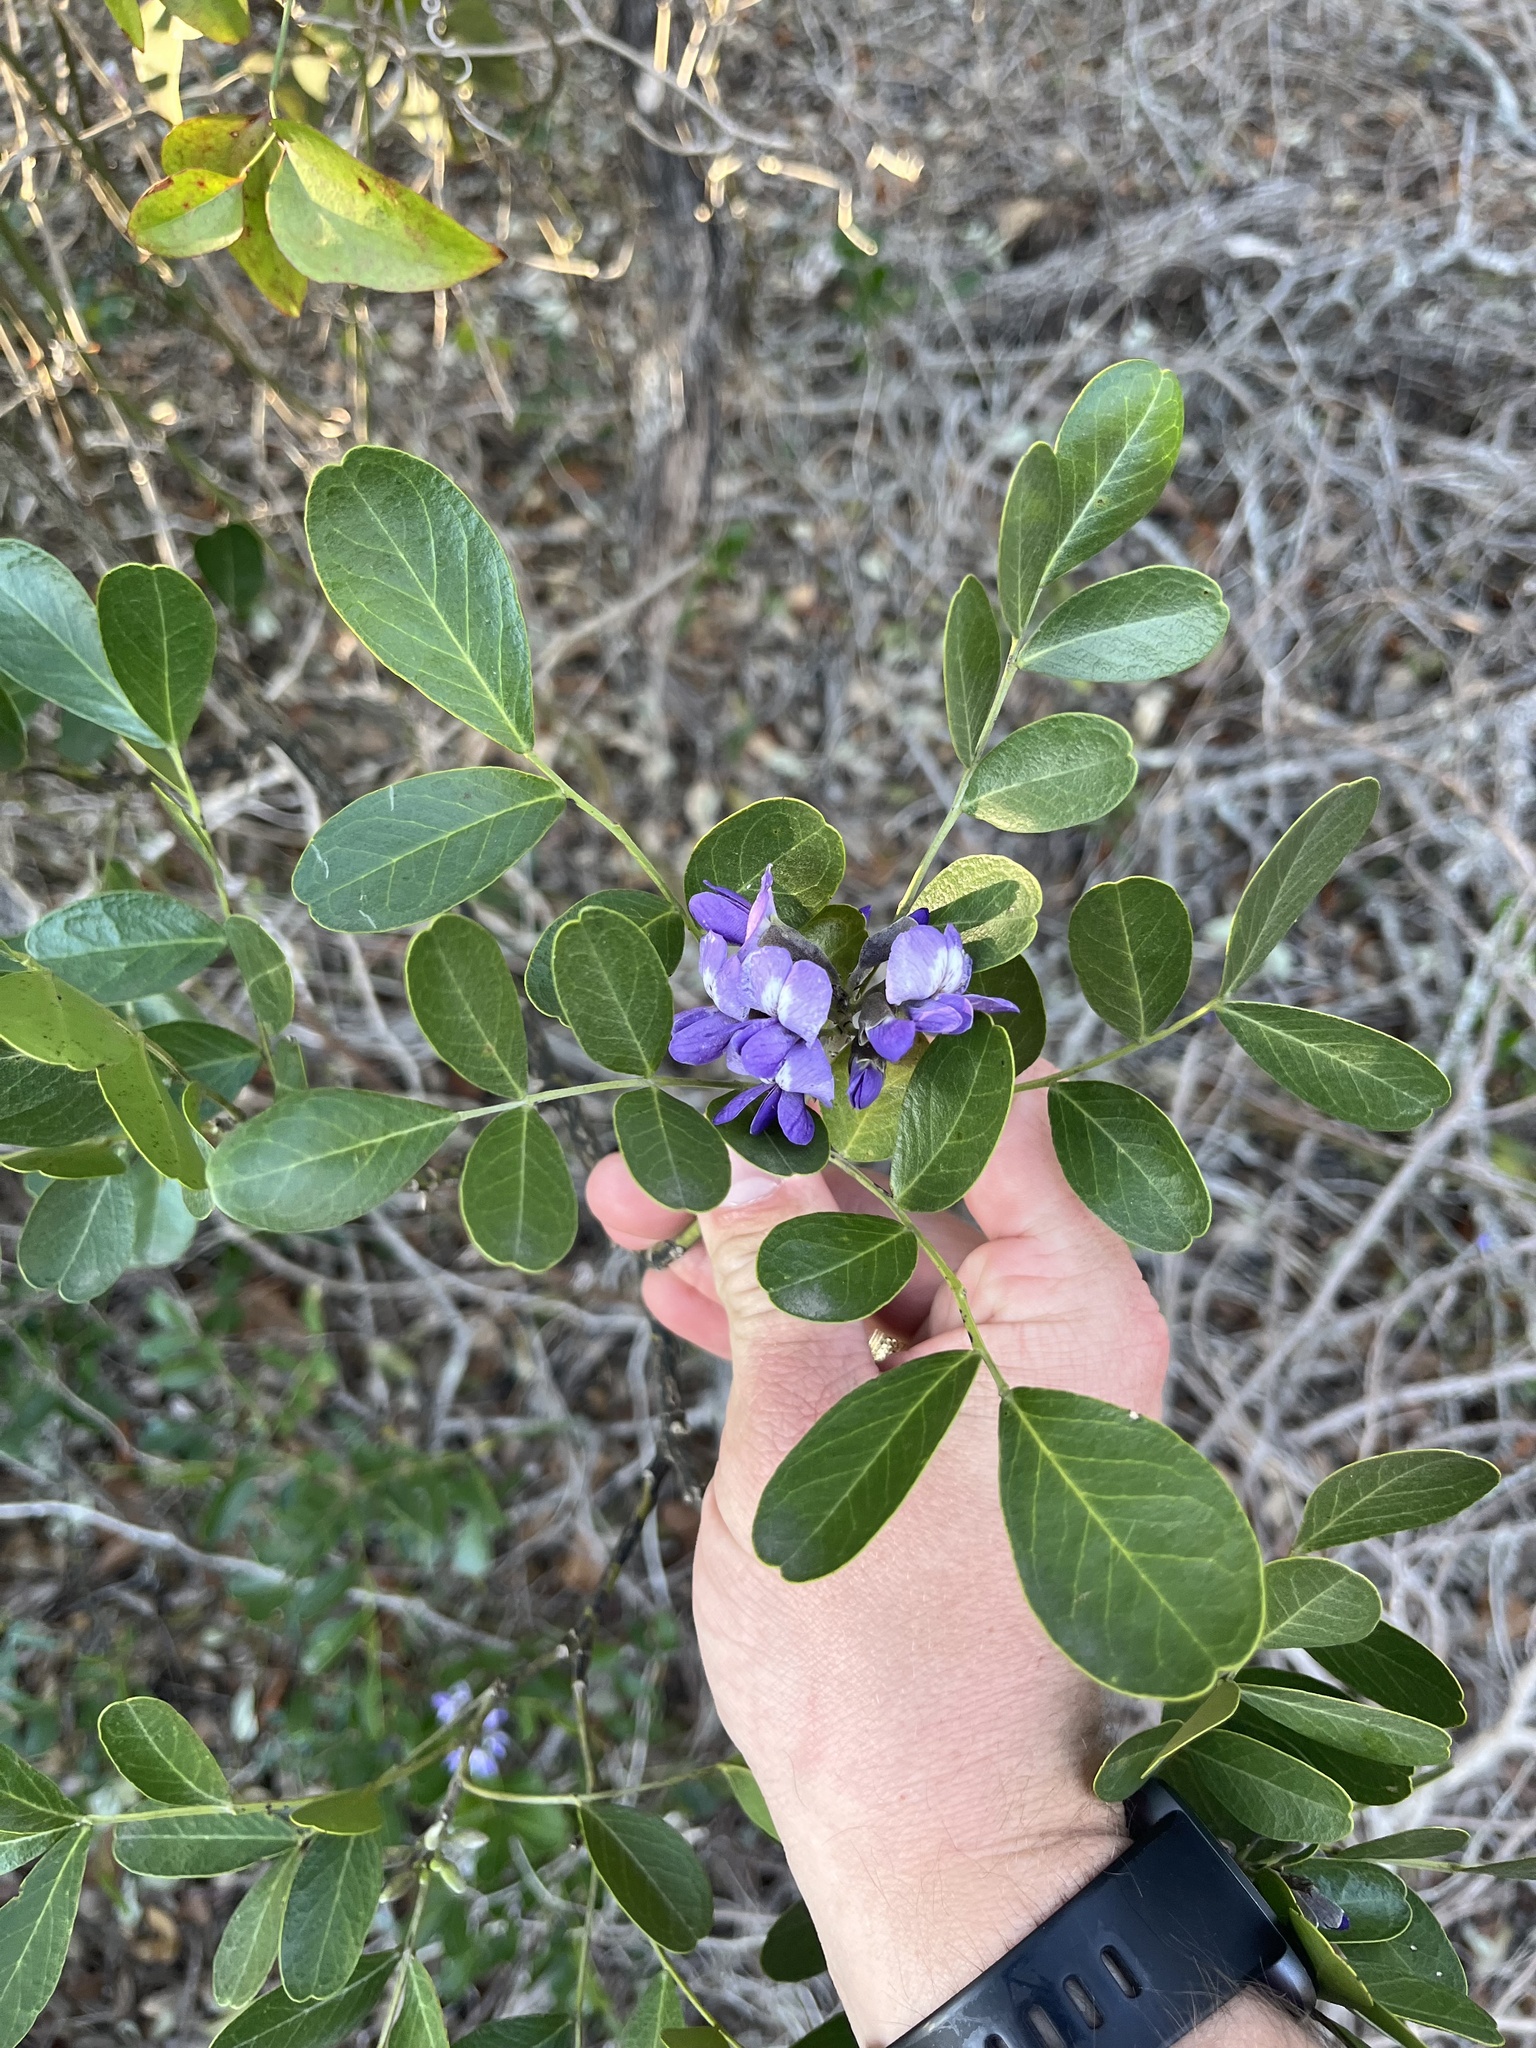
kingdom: Plantae
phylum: Tracheophyta
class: Magnoliopsida
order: Fabales
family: Fabaceae
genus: Dermatophyllum
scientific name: Dermatophyllum secundiflorum
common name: Texas-mountain-laurel
